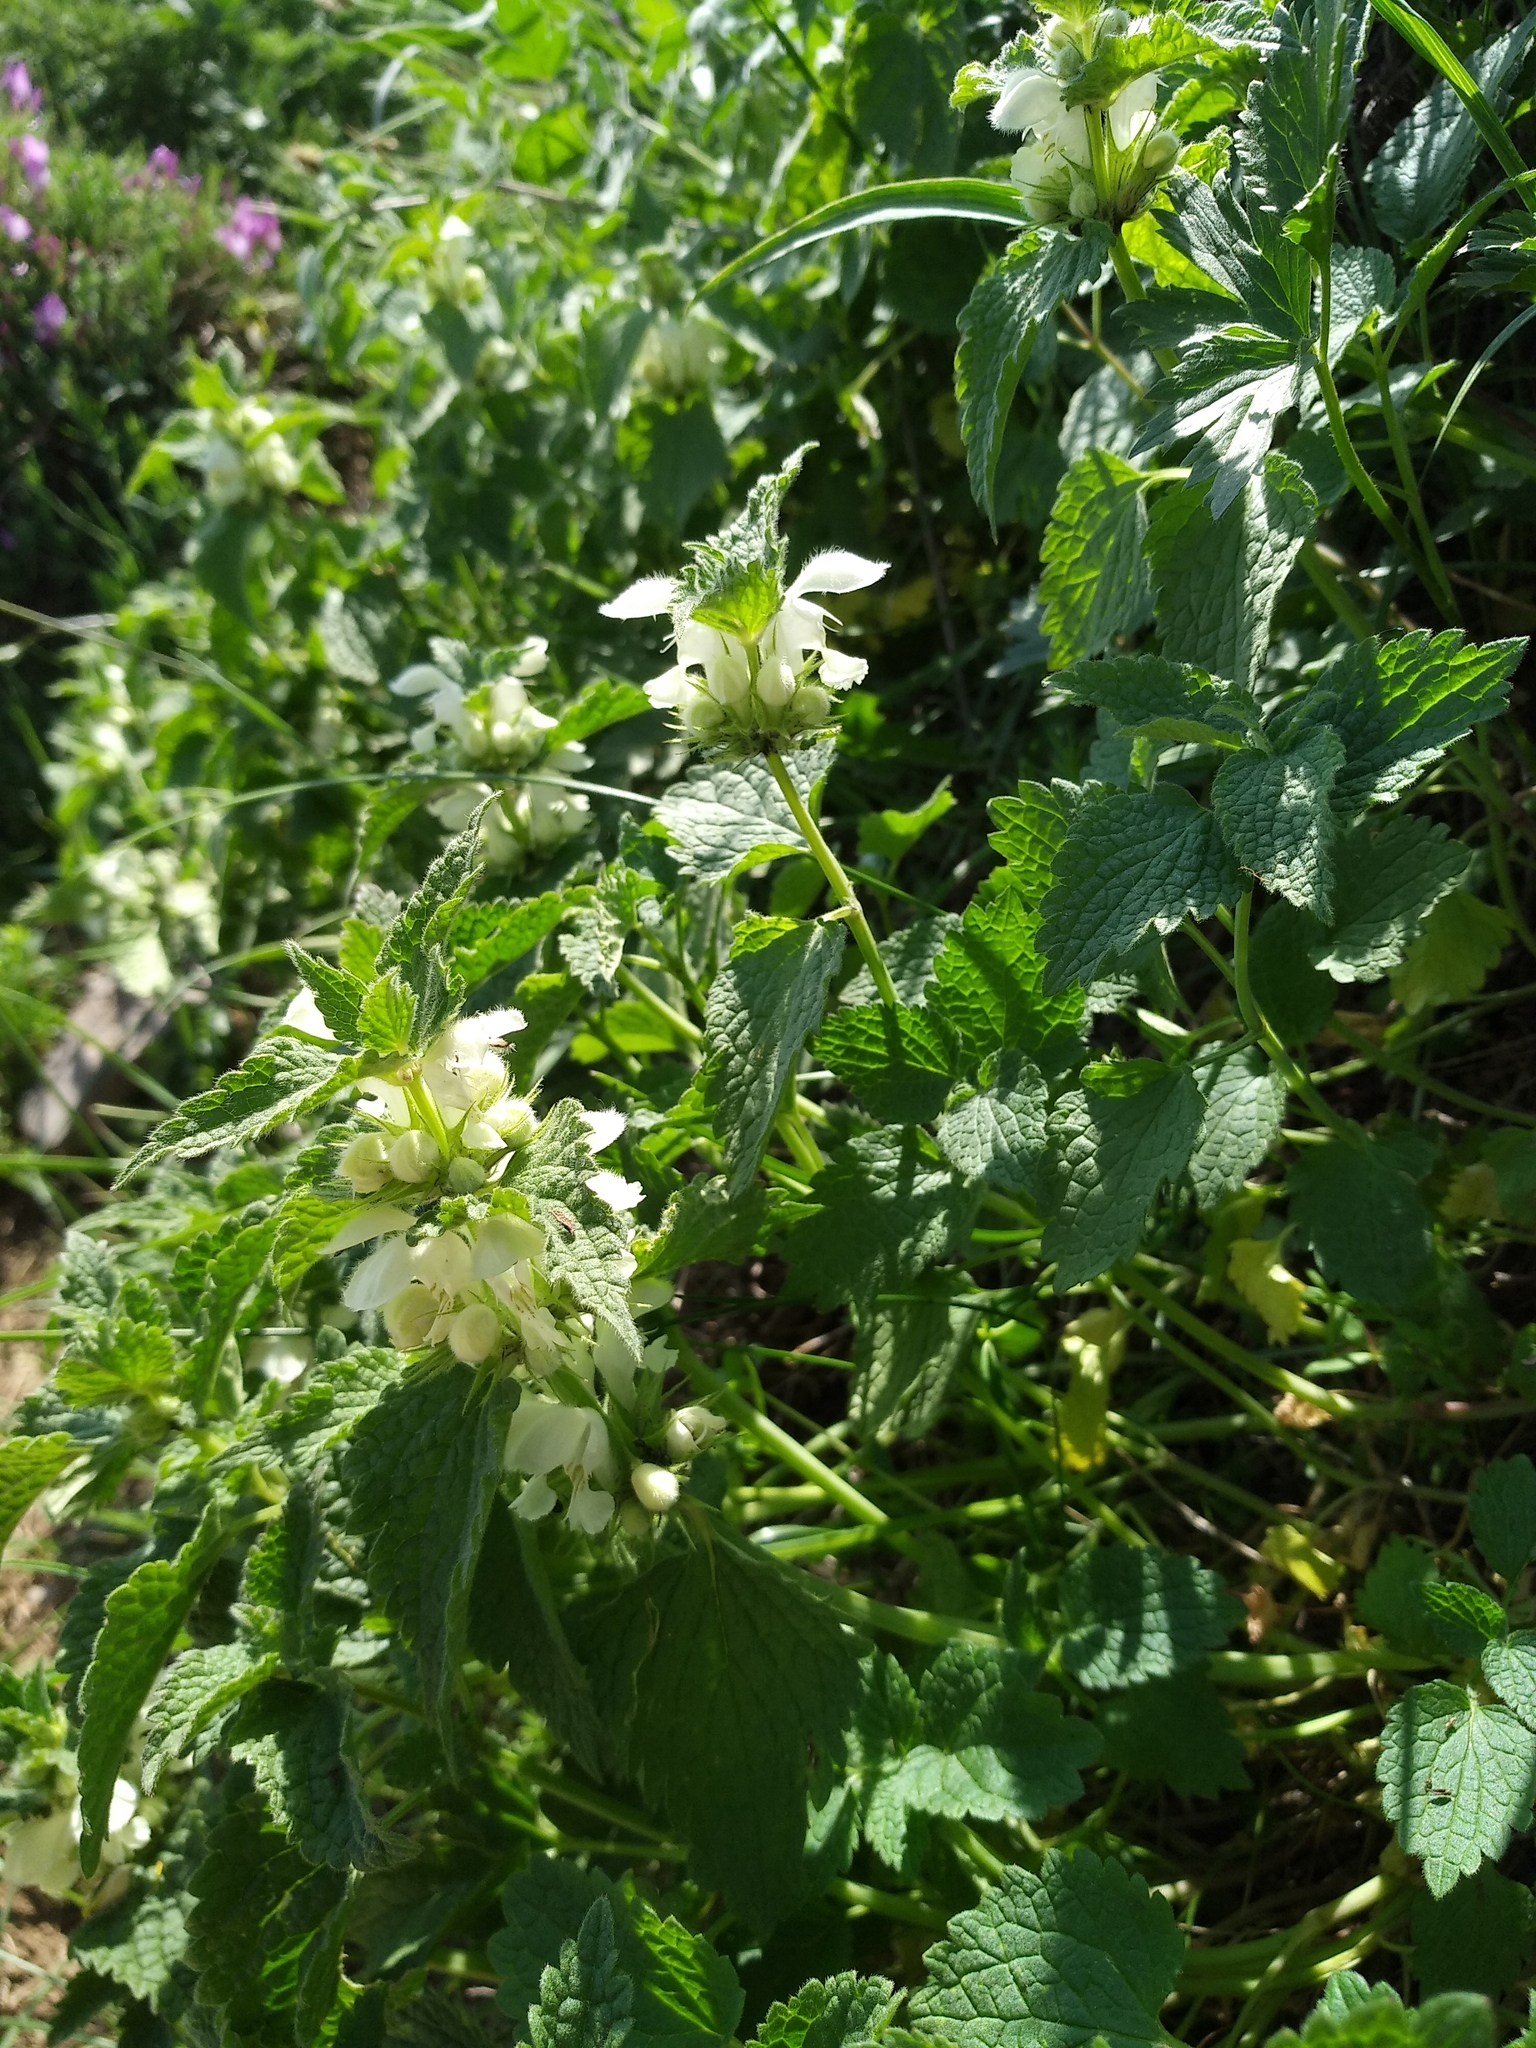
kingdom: Plantae
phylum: Tracheophyta
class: Magnoliopsida
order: Lamiales
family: Lamiaceae
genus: Lamium
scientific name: Lamium album
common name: White dead-nettle
